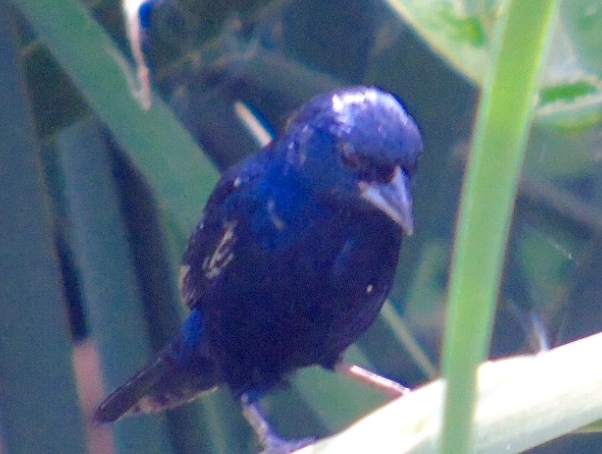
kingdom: Animalia
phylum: Chordata
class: Aves
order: Passeriformes
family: Thraupidae
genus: Volatinia
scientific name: Volatinia jacarina
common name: Blue-black grassquit
